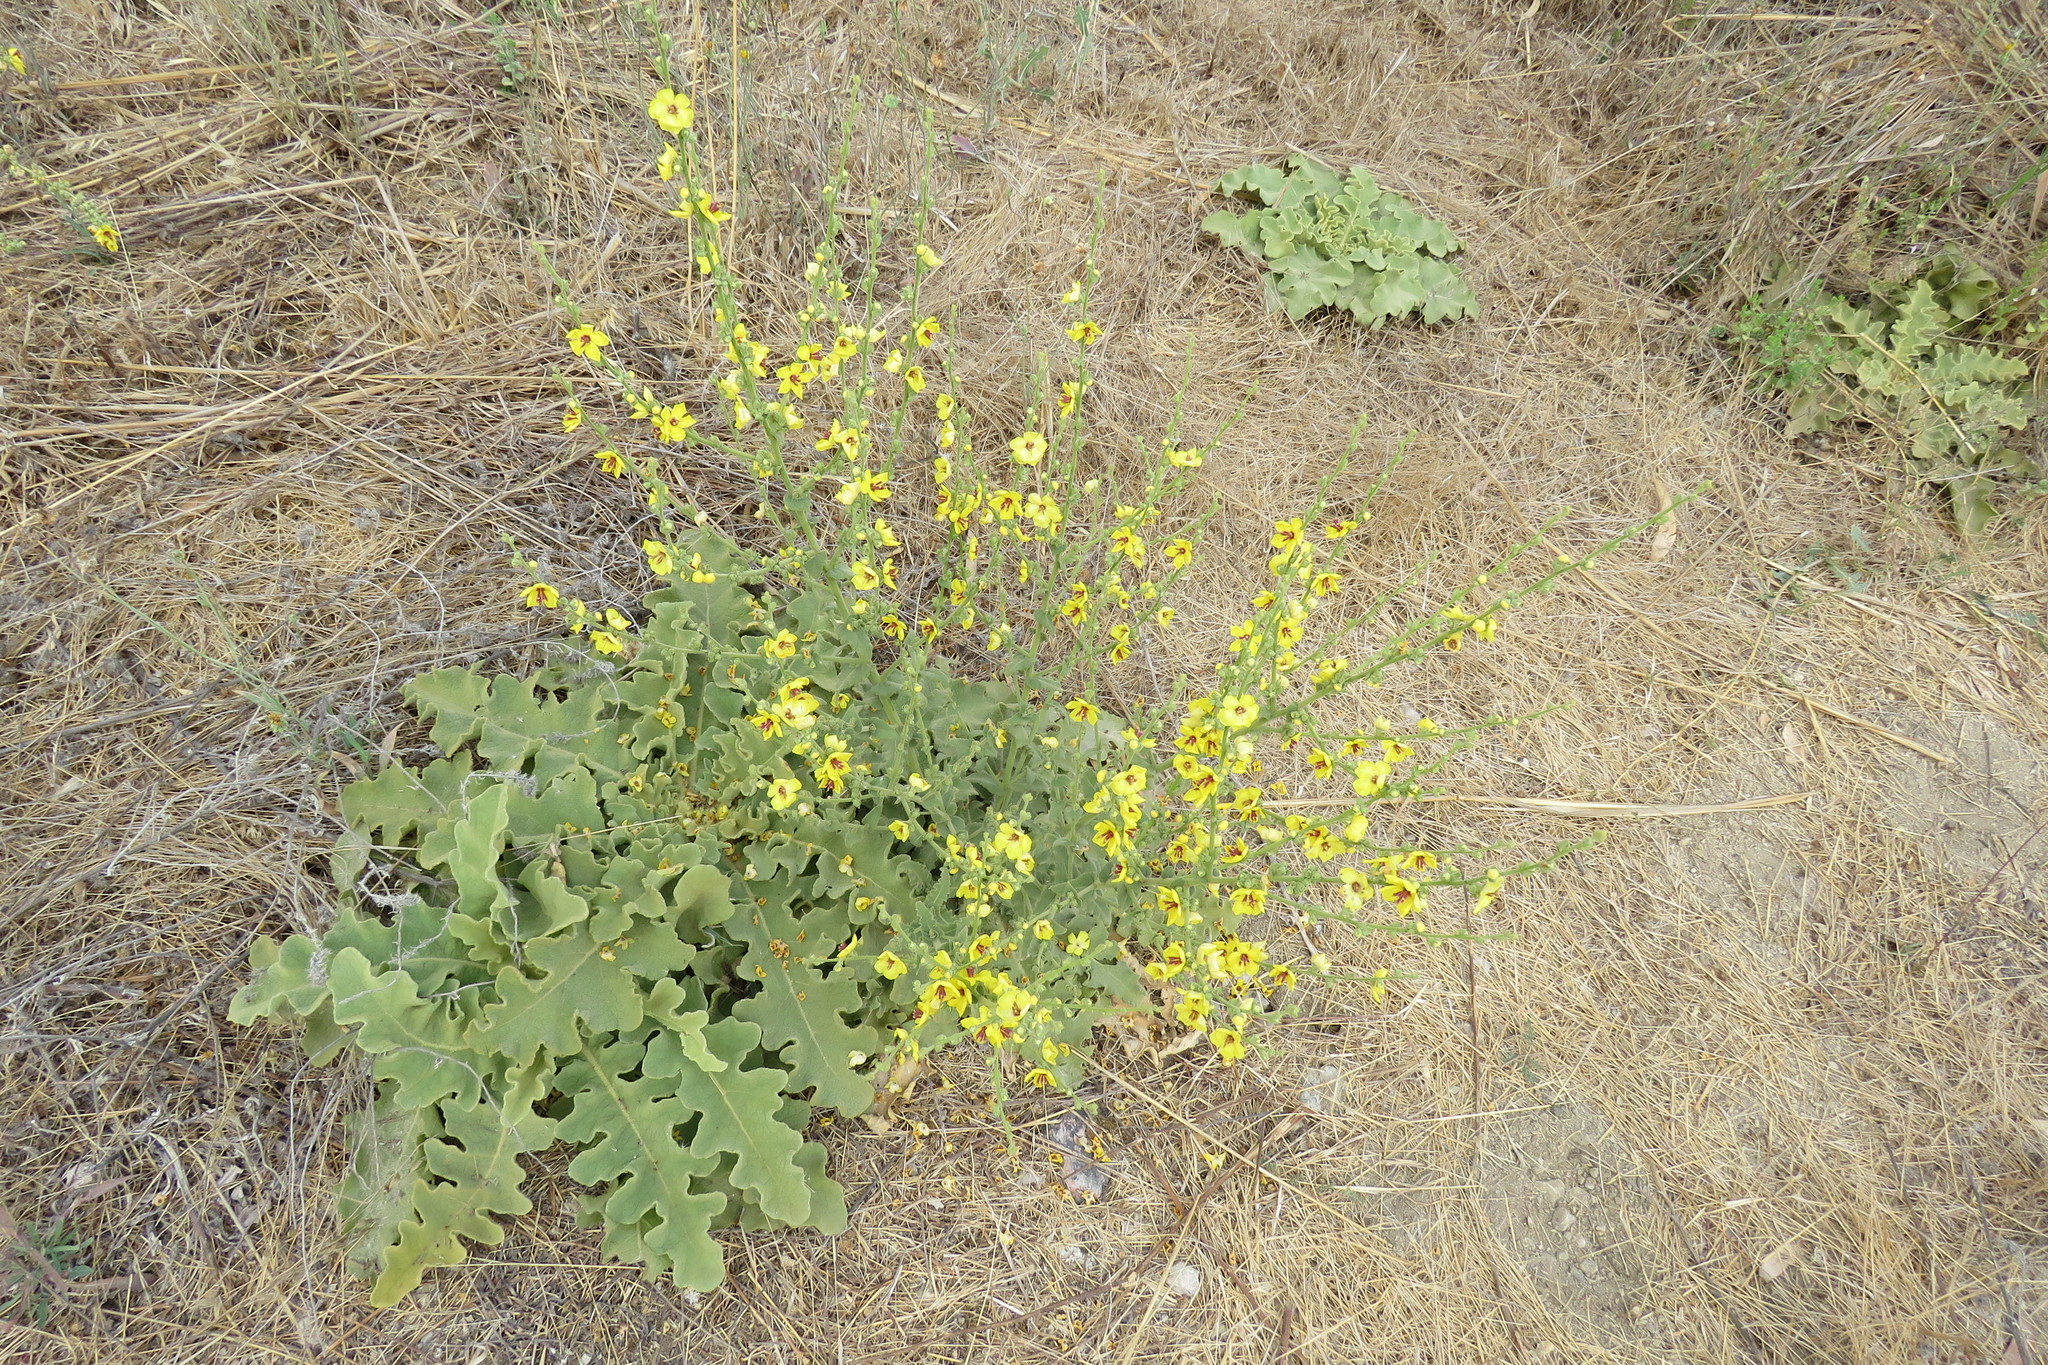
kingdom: Plantae
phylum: Tracheophyta
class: Magnoliopsida
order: Lamiales
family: Scrophulariaceae
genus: Verbascum
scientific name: Verbascum sinuatum
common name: Wavyleaf mullein
